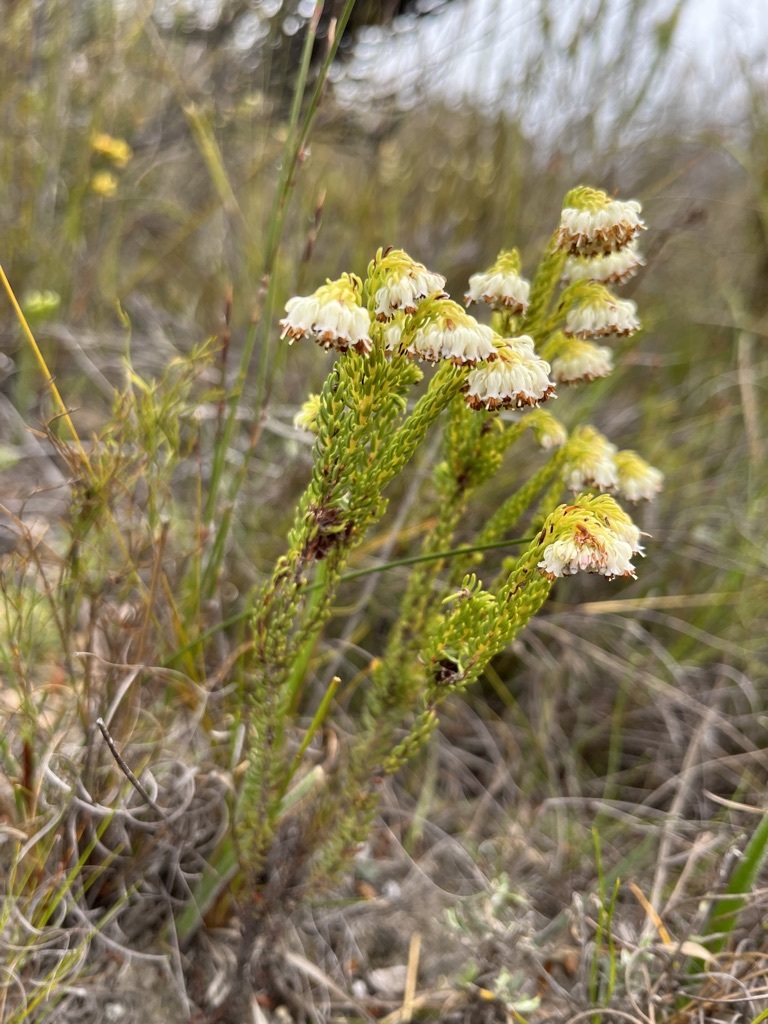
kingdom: Plantae
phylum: Tracheophyta
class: Magnoliopsida
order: Ericales
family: Ericaceae
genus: Erica
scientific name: Erica bruniifolia
